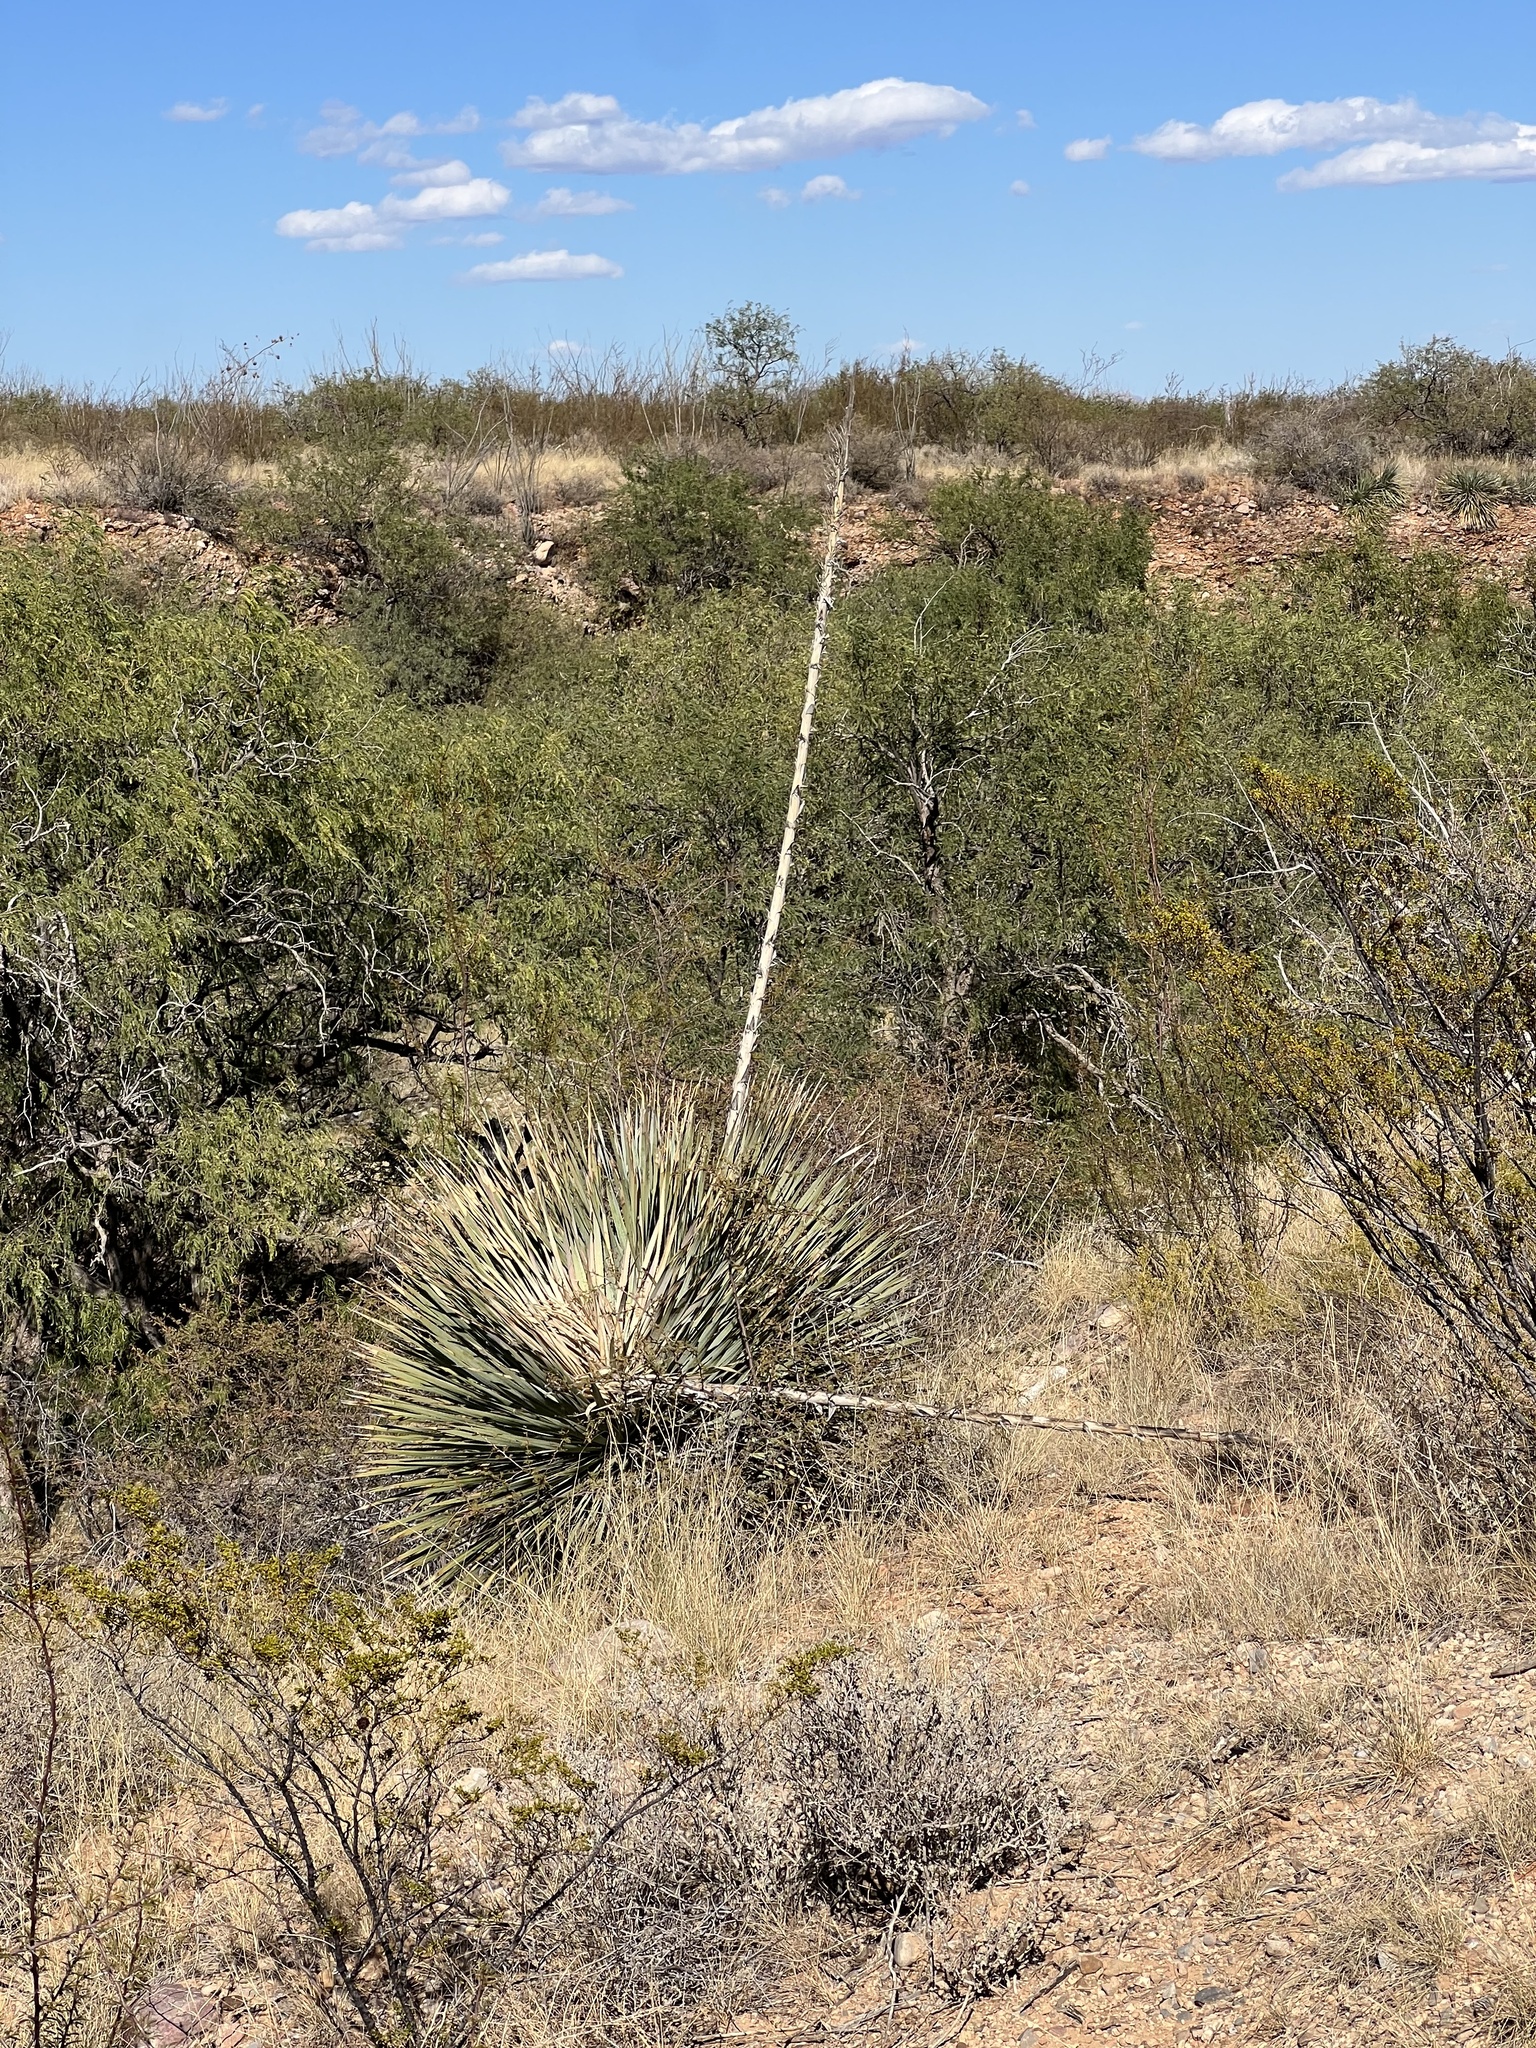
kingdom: Plantae
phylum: Tracheophyta
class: Liliopsida
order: Asparagales
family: Asparagaceae
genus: Dasylirion
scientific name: Dasylirion wheeleri
